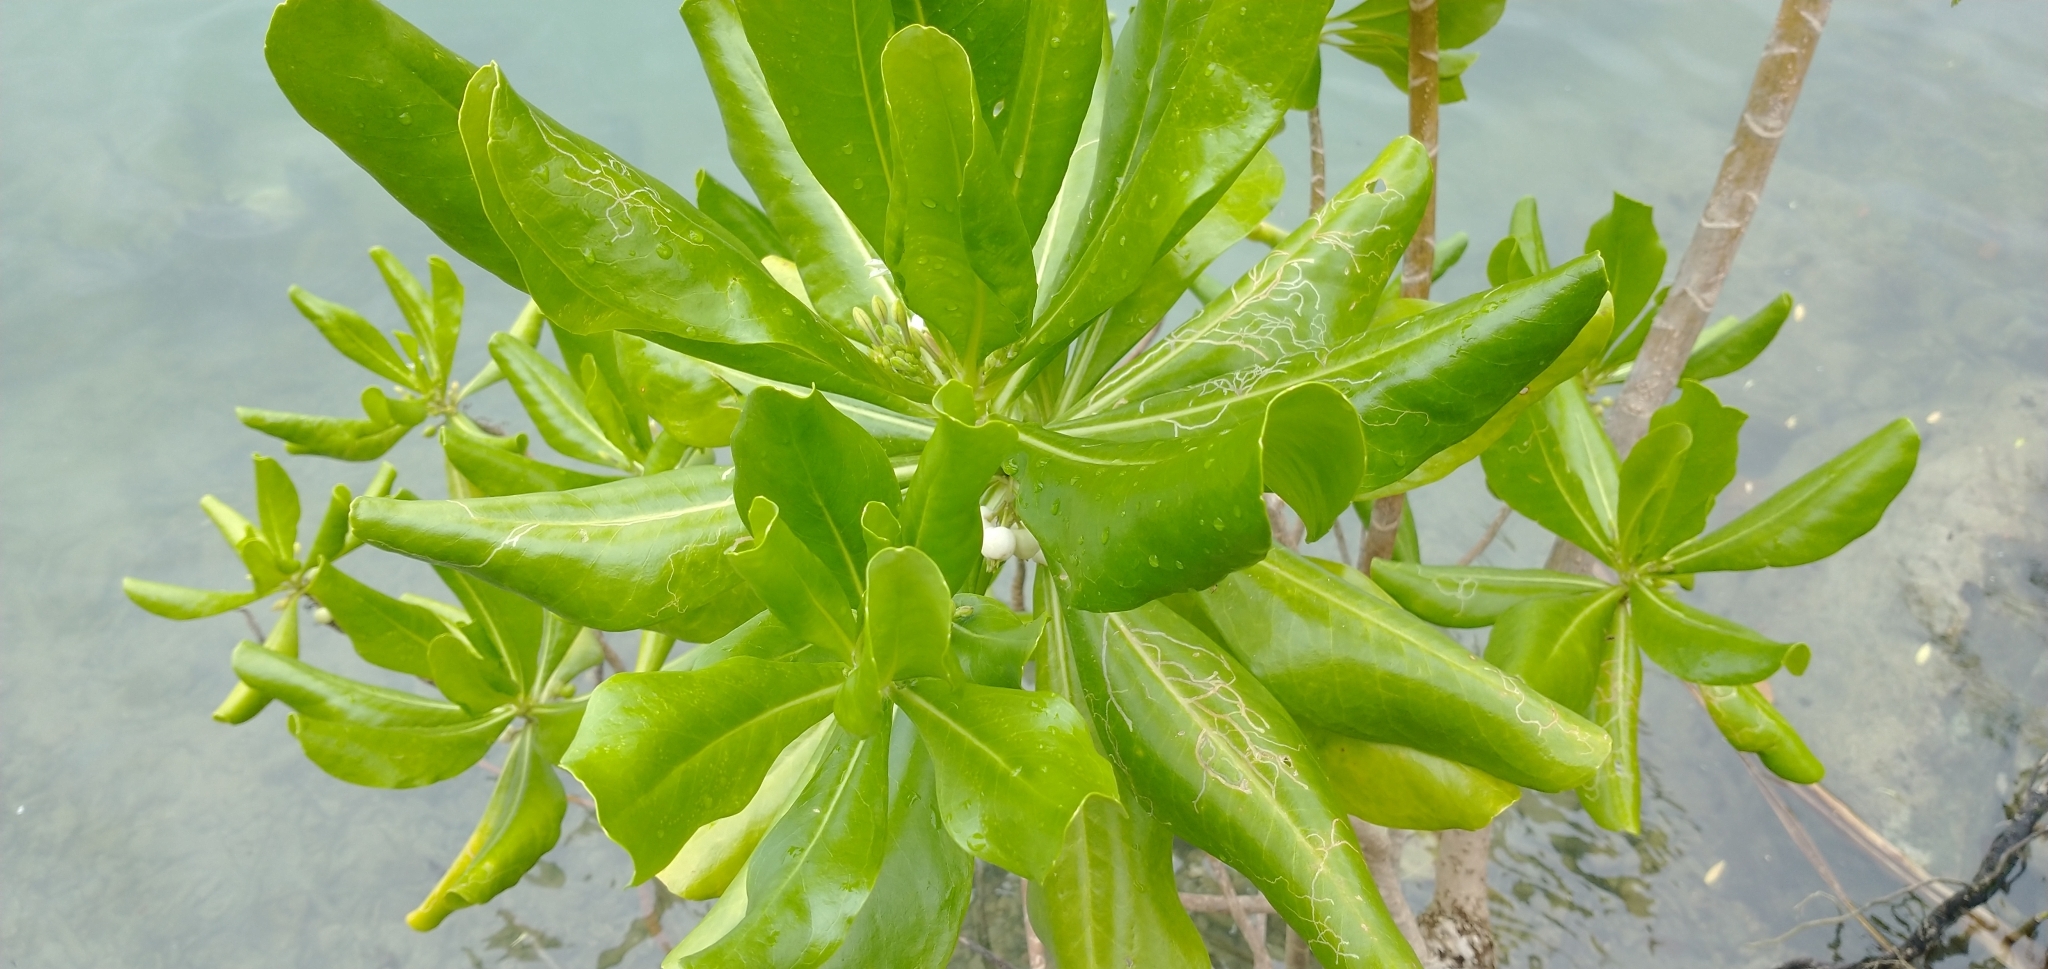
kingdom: Plantae
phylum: Tracheophyta
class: Magnoliopsida
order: Asterales
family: Goodeniaceae
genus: Scaevola
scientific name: Scaevola taccada
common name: Sea lettucetree
